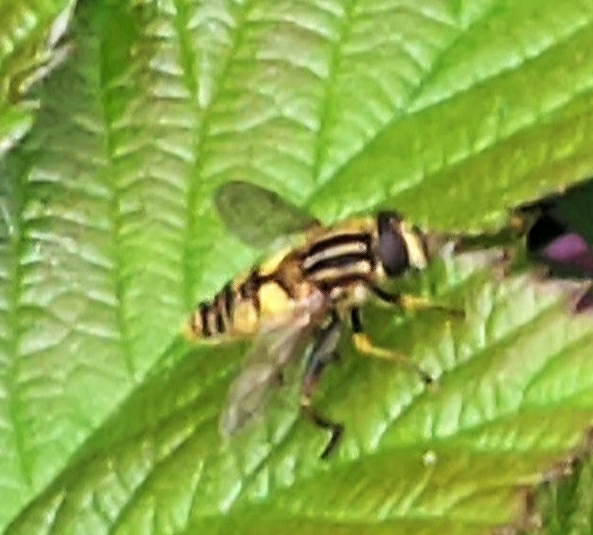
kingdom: Animalia
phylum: Arthropoda
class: Insecta
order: Diptera
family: Syrphidae
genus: Helophilus
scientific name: Helophilus pendulus
